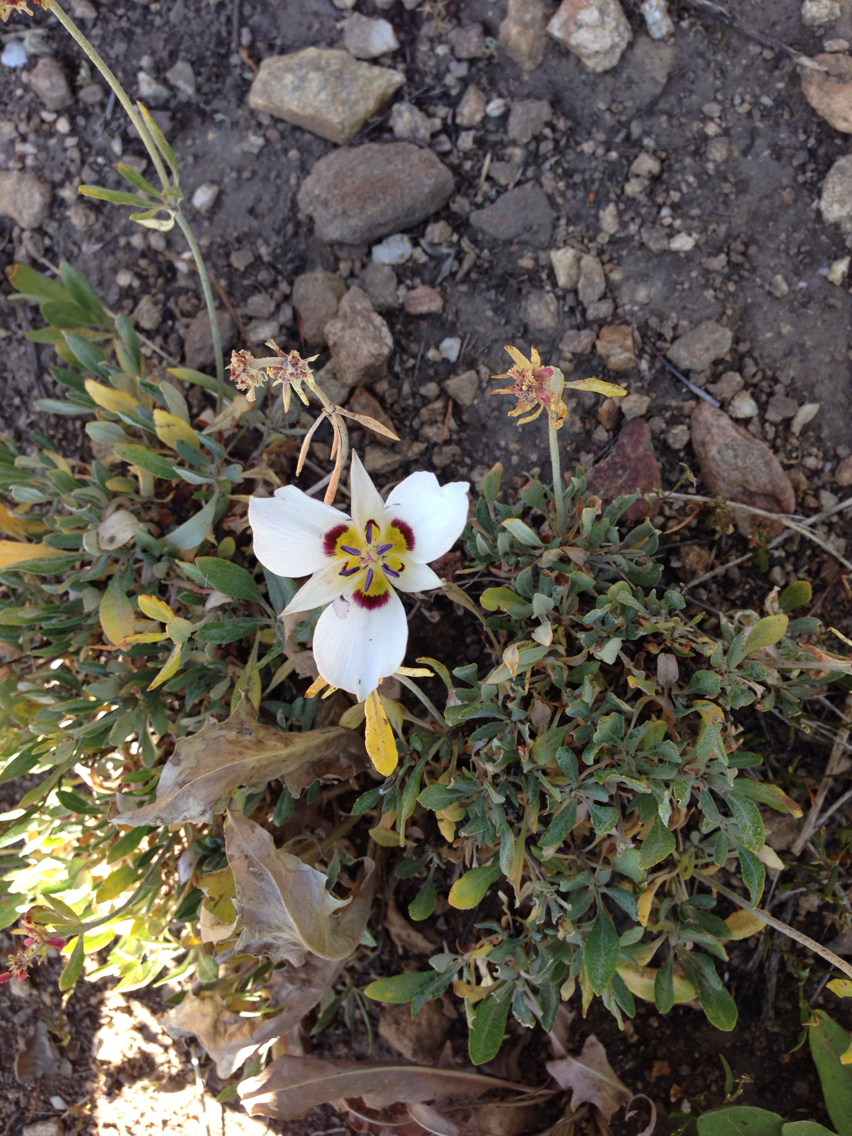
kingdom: Plantae
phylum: Tracheophyta
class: Liliopsida
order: Liliales
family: Liliaceae
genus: Calochortus
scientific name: Calochortus bruneaunis
